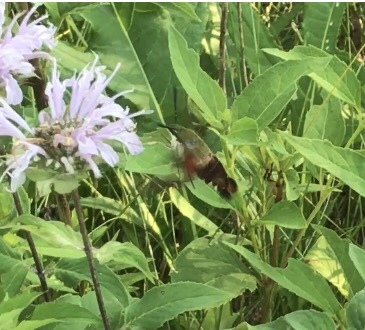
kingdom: Animalia
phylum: Arthropoda
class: Insecta
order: Lepidoptera
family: Sphingidae
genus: Hemaris
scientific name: Hemaris thysbe
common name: Common clear-wing
